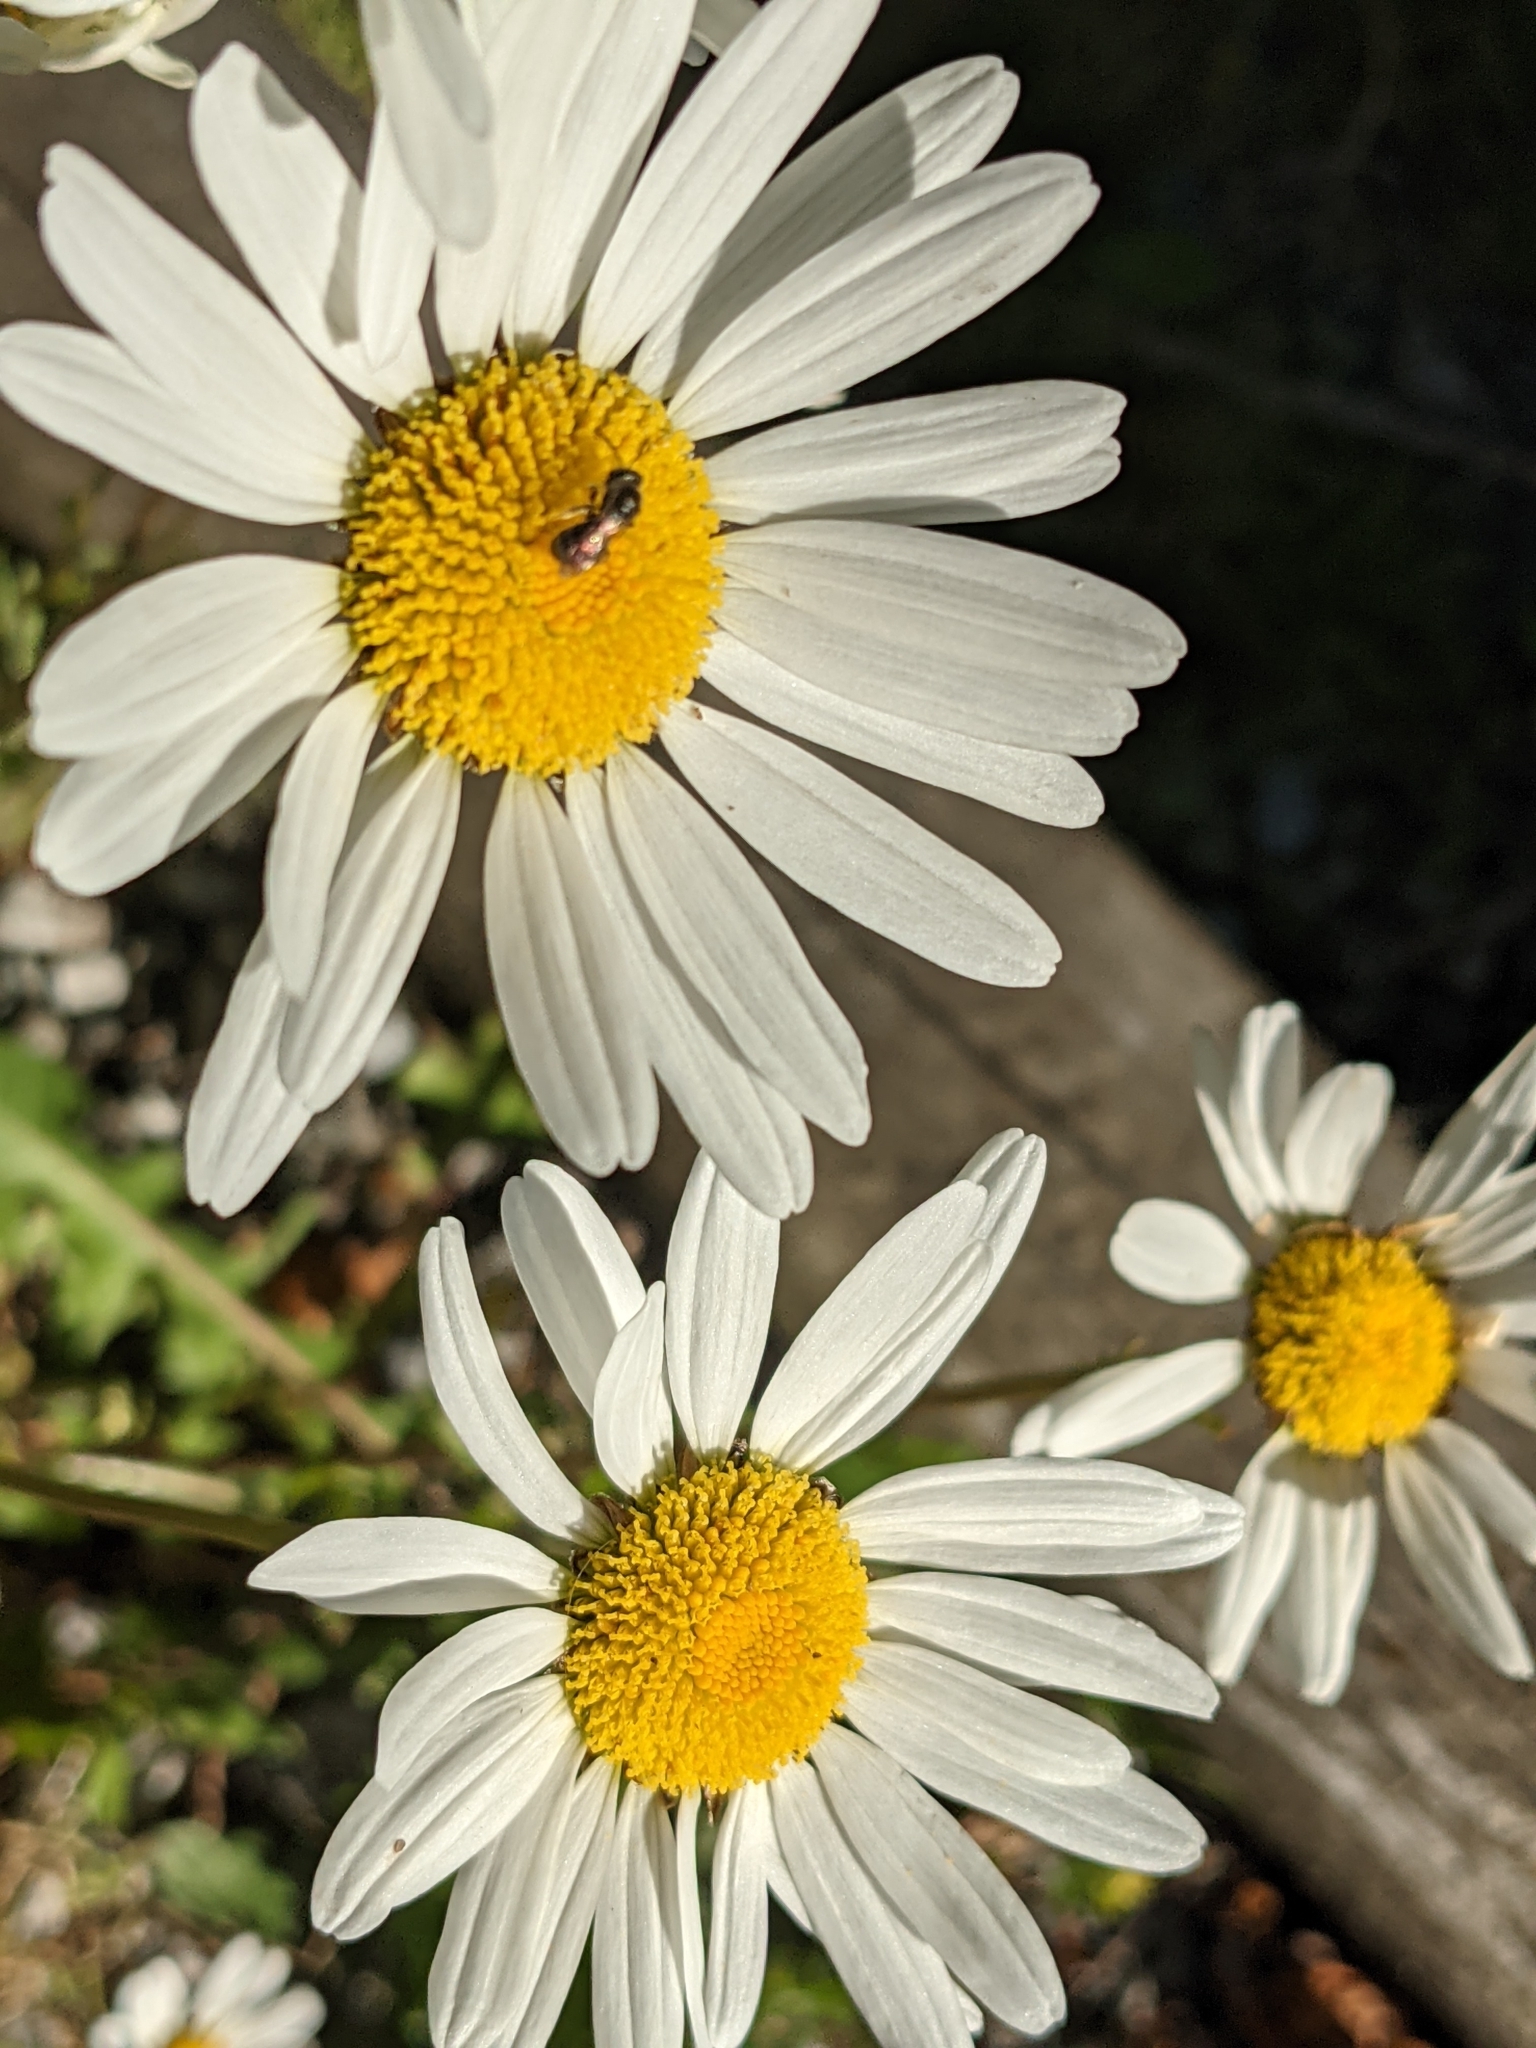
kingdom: Plantae
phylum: Tracheophyta
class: Magnoliopsida
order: Asterales
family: Asteraceae
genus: Leucanthemum
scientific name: Leucanthemum vulgare
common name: Oxeye daisy
